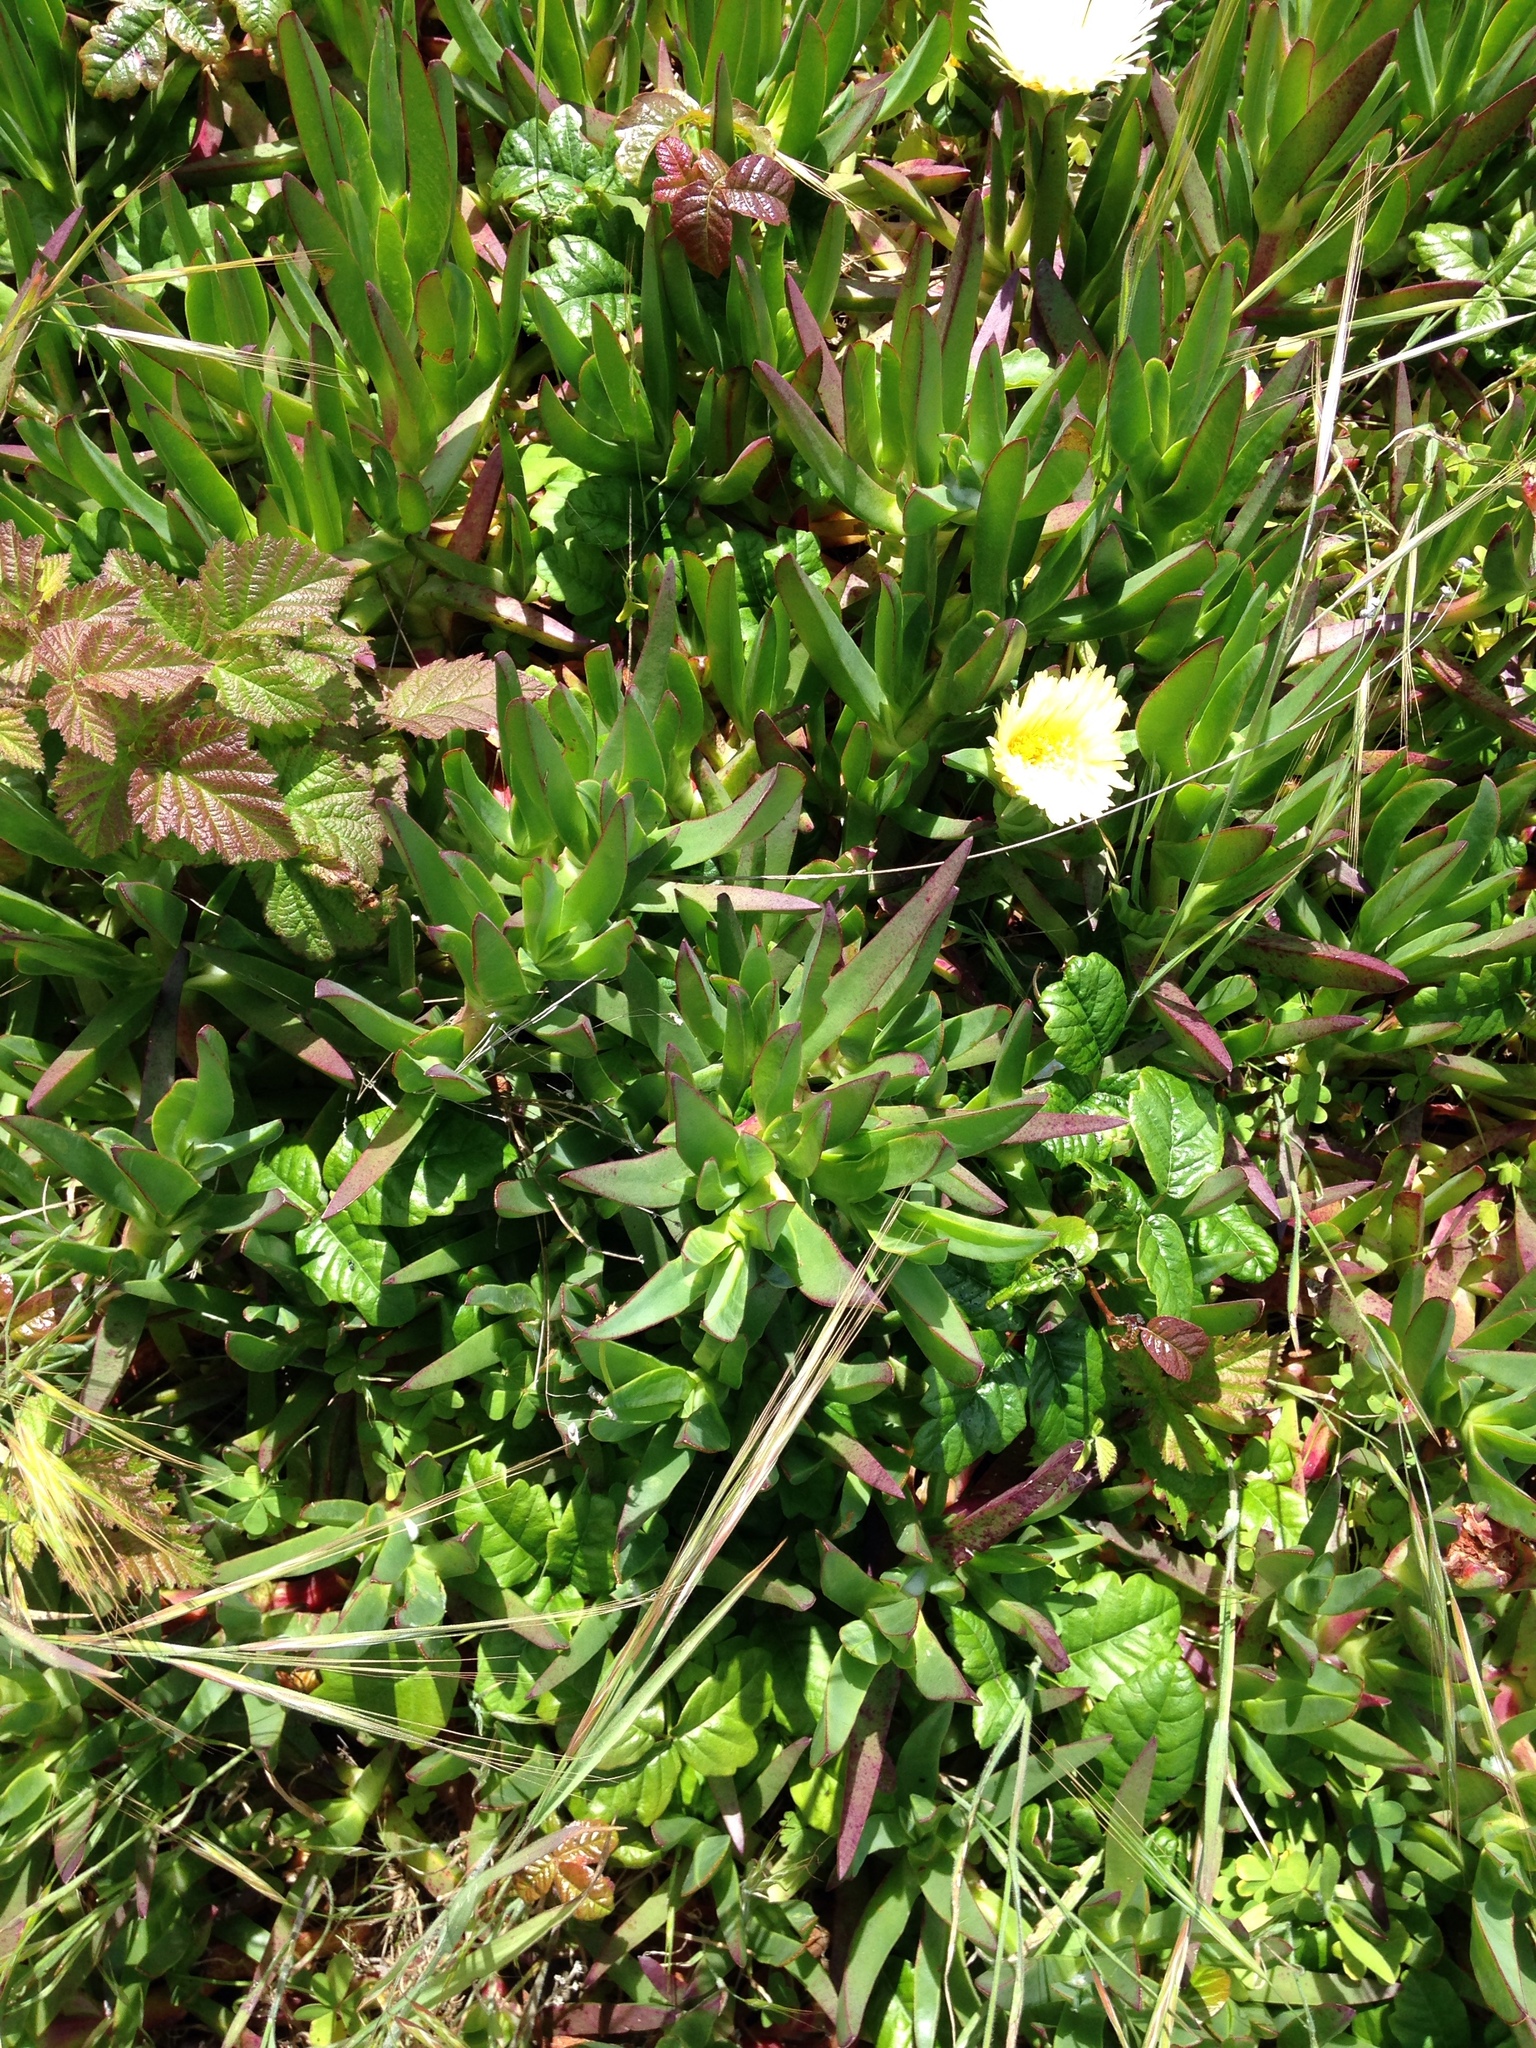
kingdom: Plantae
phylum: Tracheophyta
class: Magnoliopsida
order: Caryophyllales
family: Aizoaceae
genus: Carpobrotus
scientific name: Carpobrotus edulis
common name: Hottentot-fig
